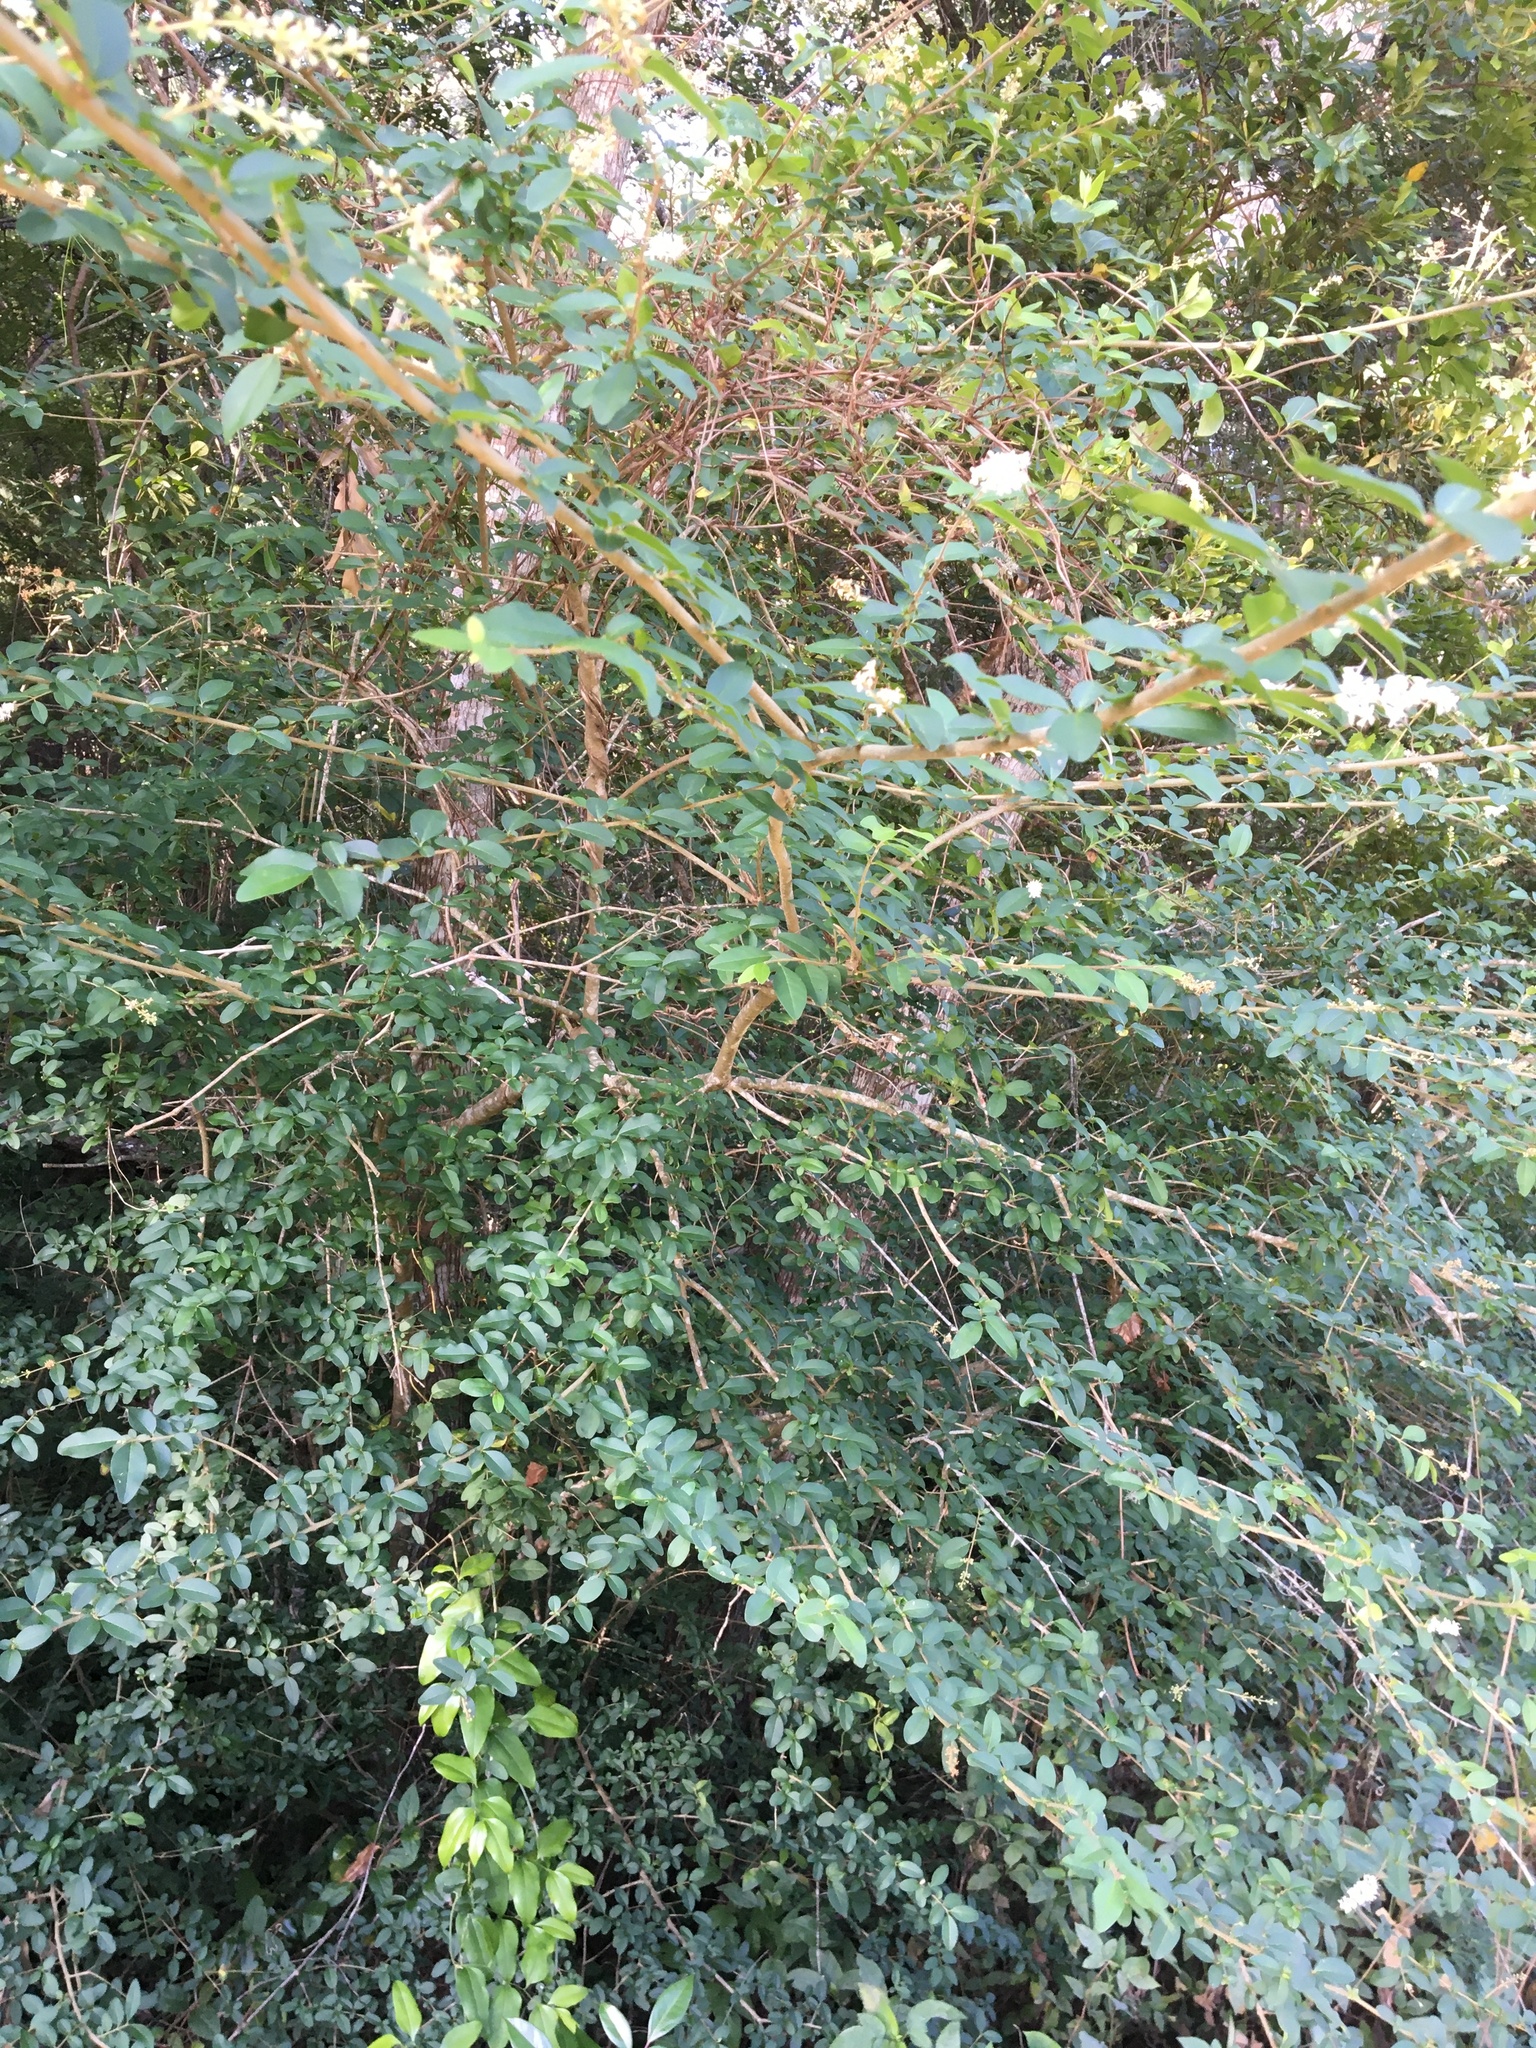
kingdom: Plantae
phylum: Tracheophyta
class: Magnoliopsida
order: Lamiales
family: Oleaceae
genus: Ligustrum
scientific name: Ligustrum sinense
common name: Chinese privet
